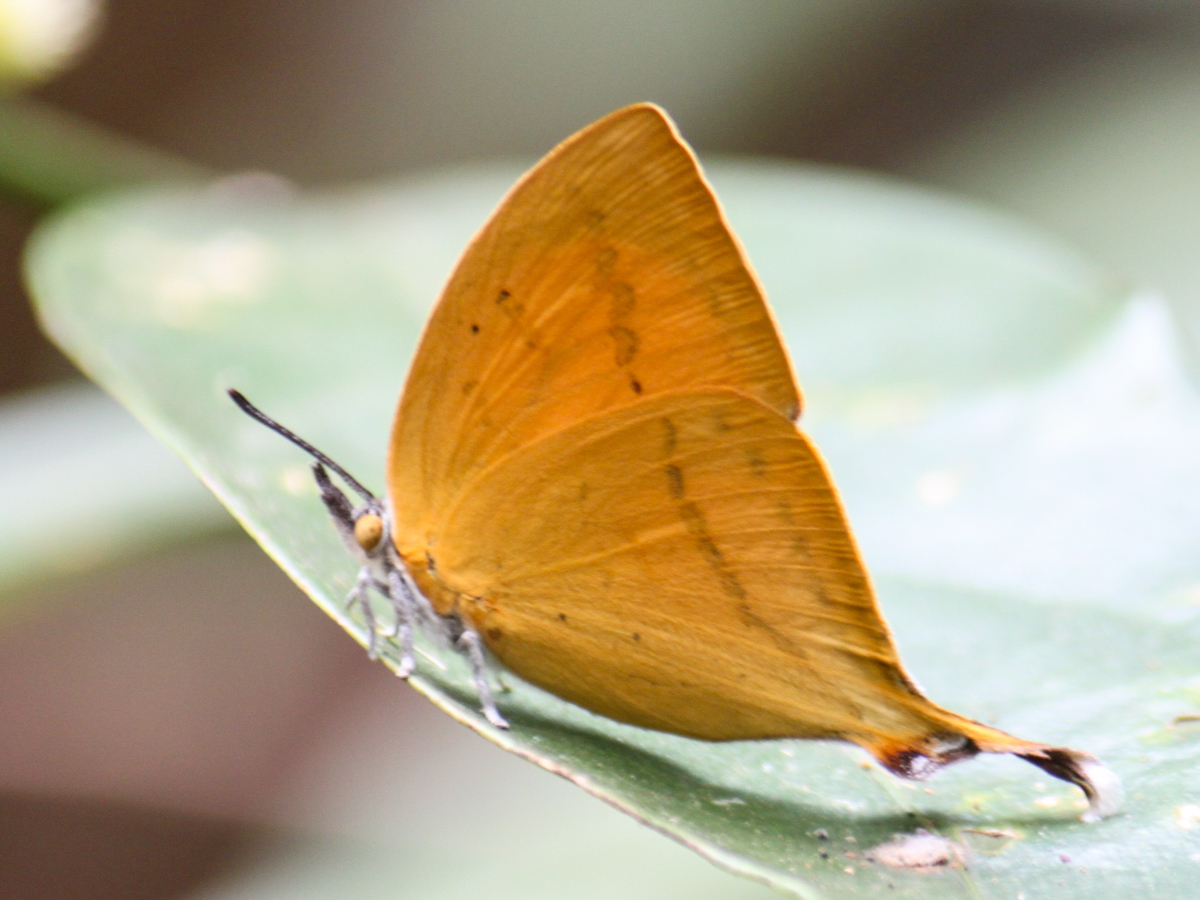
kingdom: Animalia
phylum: Arthropoda
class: Insecta
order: Lepidoptera
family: Lycaenidae
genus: Loxura
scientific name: Loxura atymnus
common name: Common yamfly
